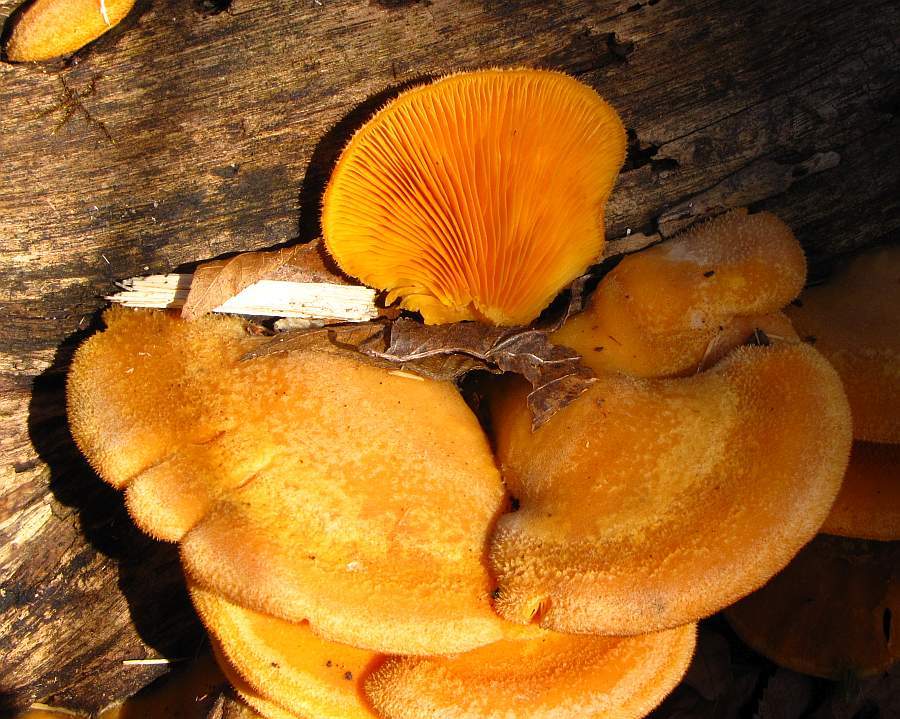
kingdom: Fungi
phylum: Basidiomycota
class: Agaricomycetes
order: Agaricales
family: Phyllotopsidaceae
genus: Phyllotopsis
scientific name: Phyllotopsis nidulans
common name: Orange mock oyster
